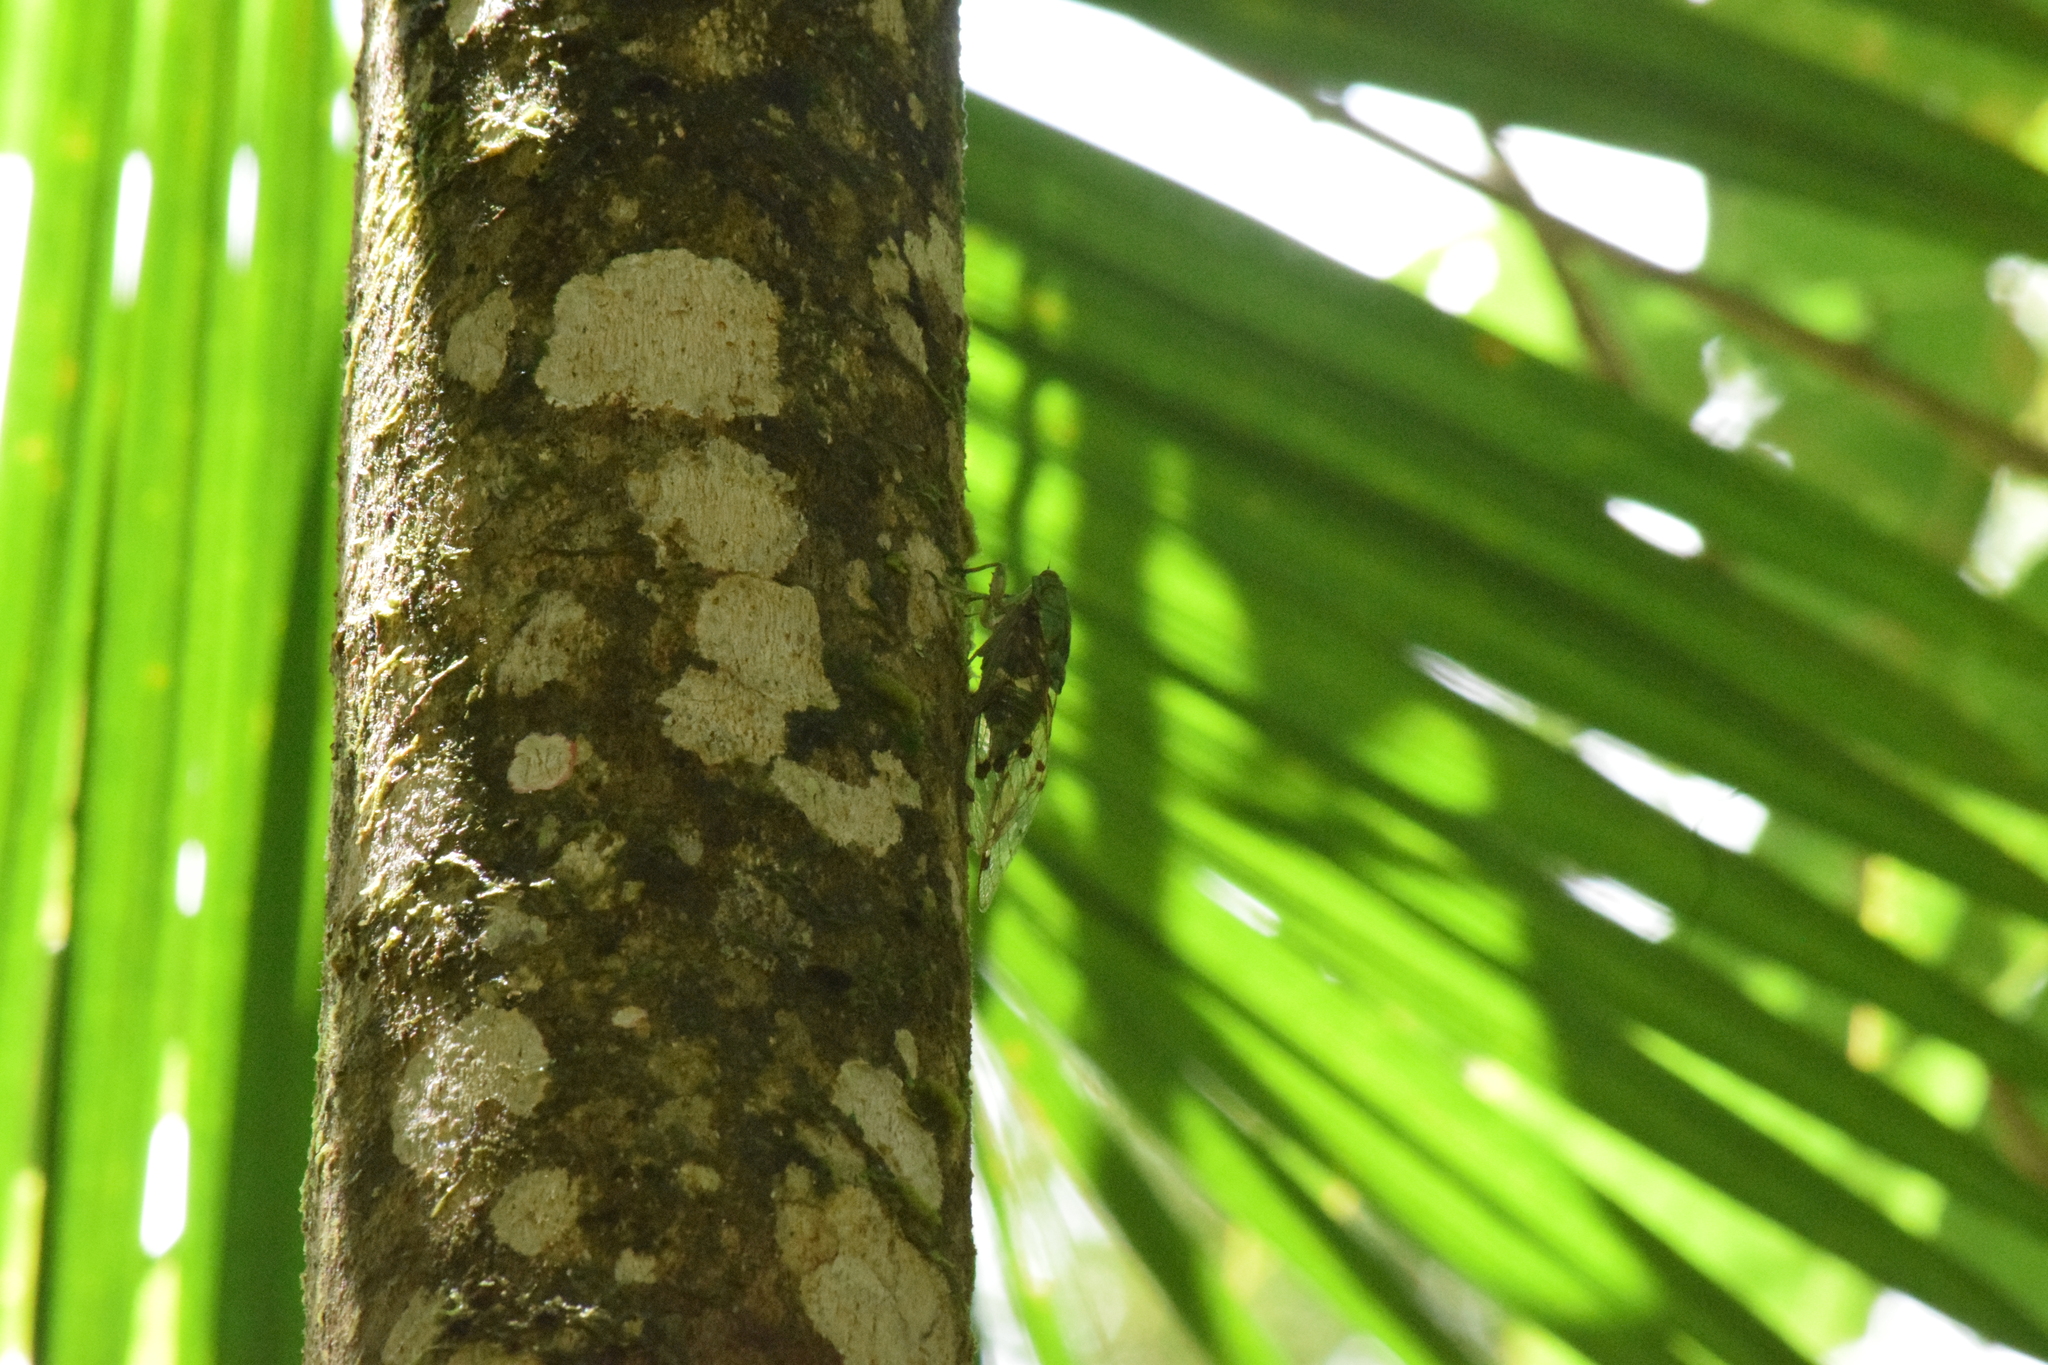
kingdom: Animalia
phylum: Arthropoda
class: Insecta
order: Hemiptera
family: Cicadidae
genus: Zammara
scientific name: Zammara tympanum
